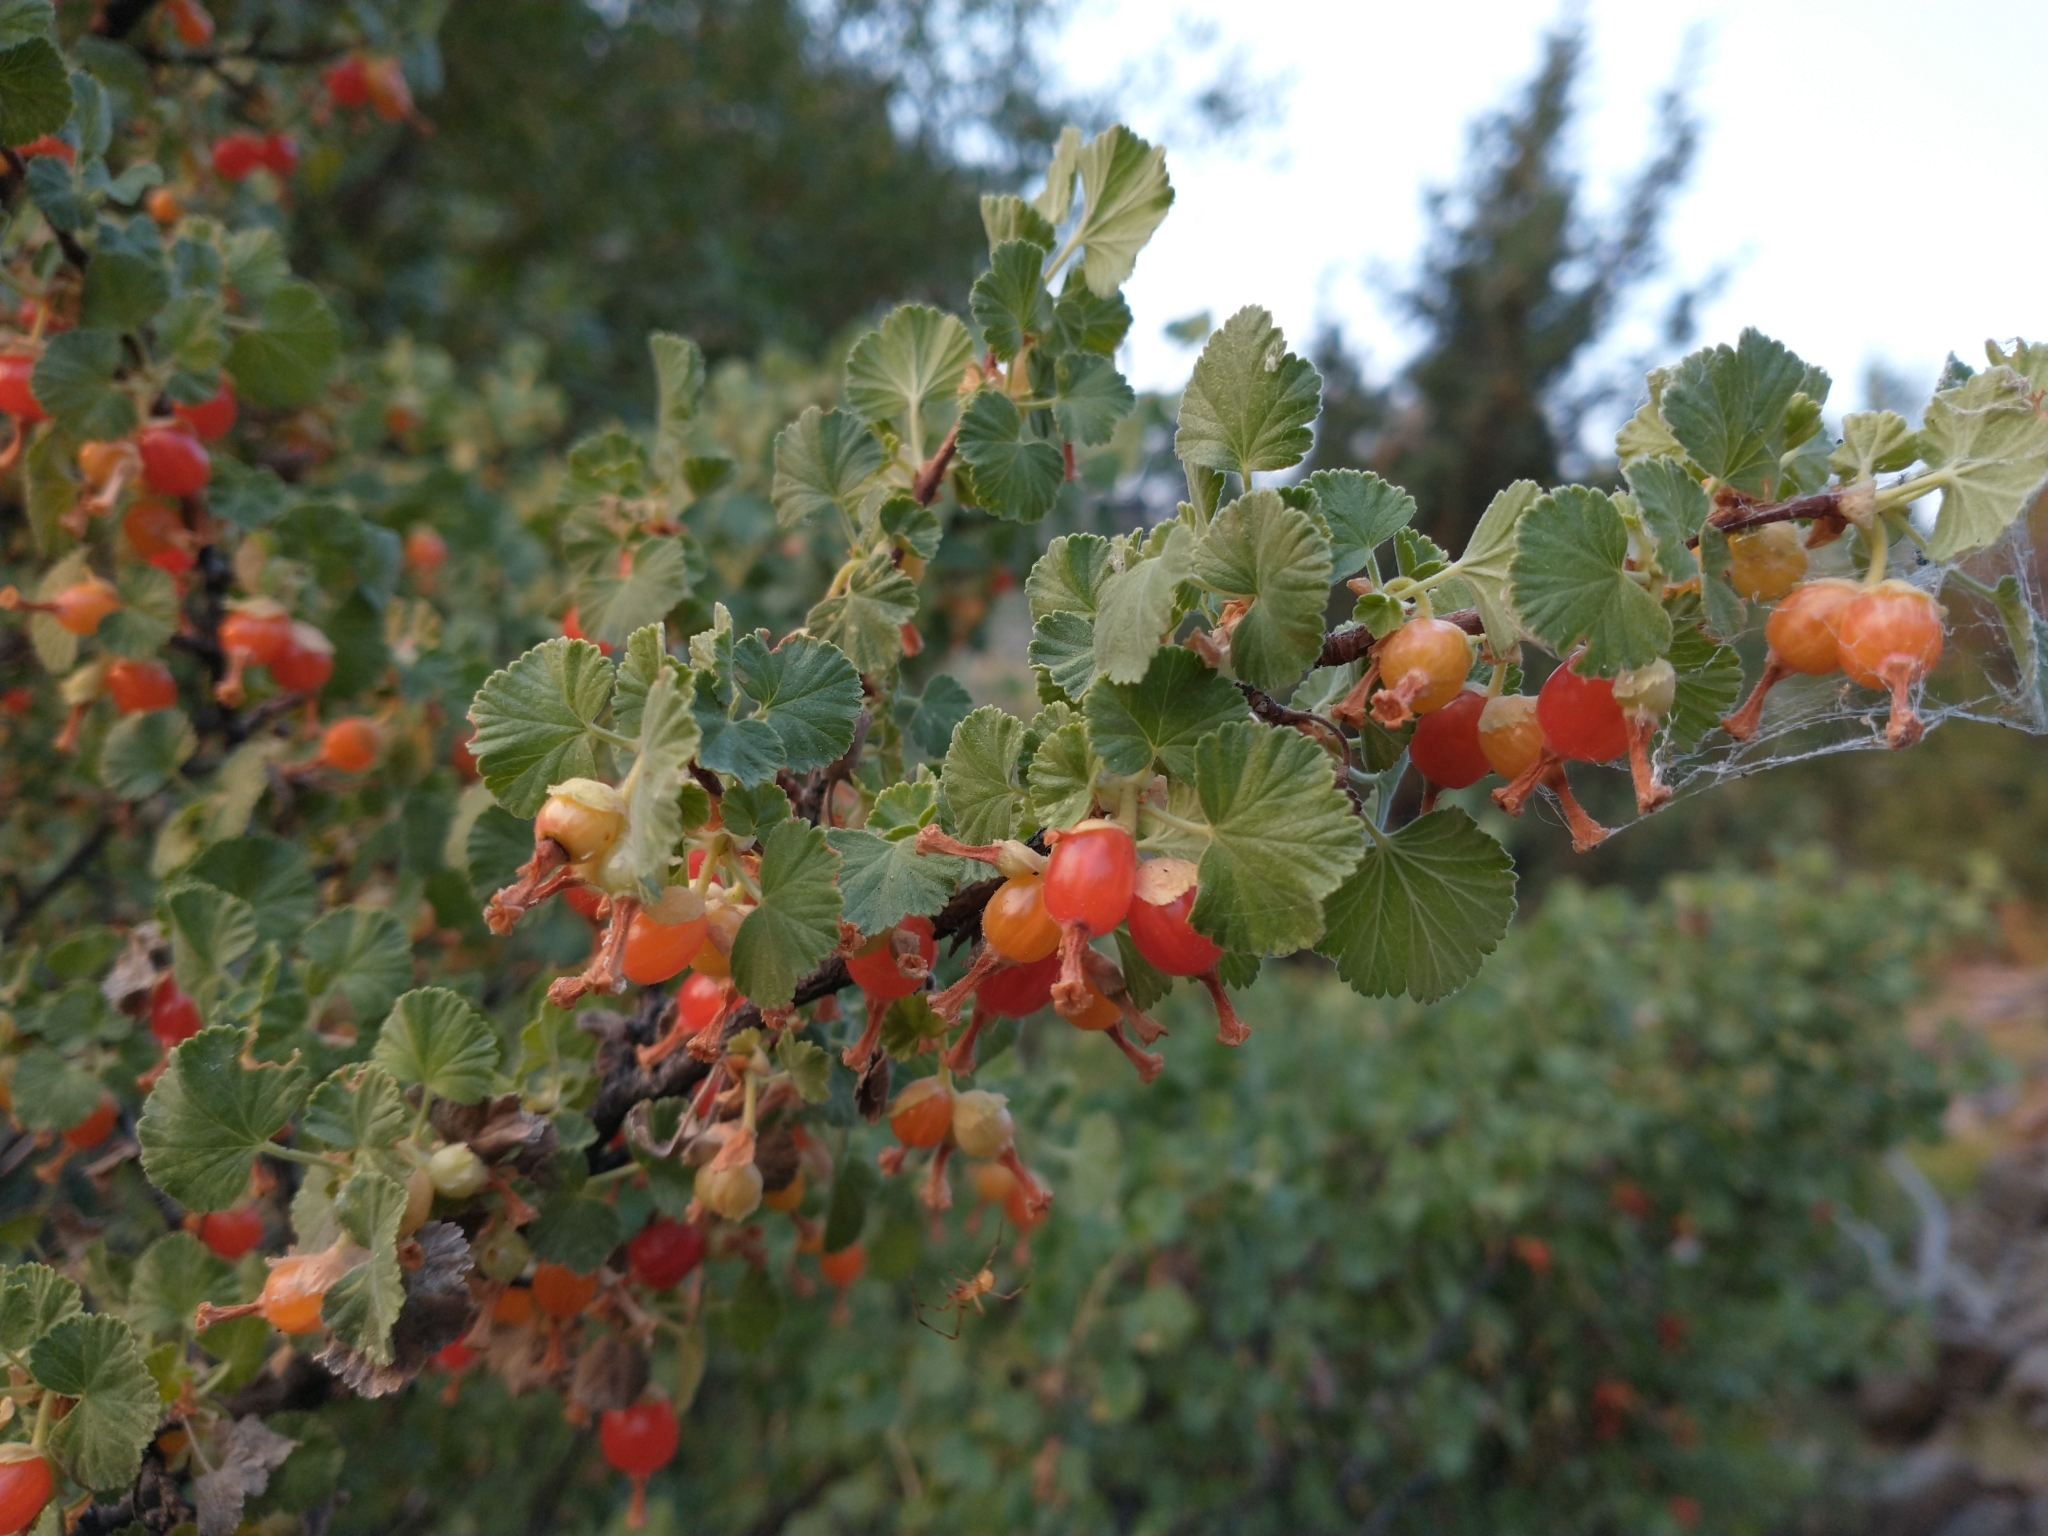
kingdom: Plantae
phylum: Tracheophyta
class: Magnoliopsida
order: Saxifragales
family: Grossulariaceae
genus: Ribes
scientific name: Ribes cereum
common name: Wax currant
